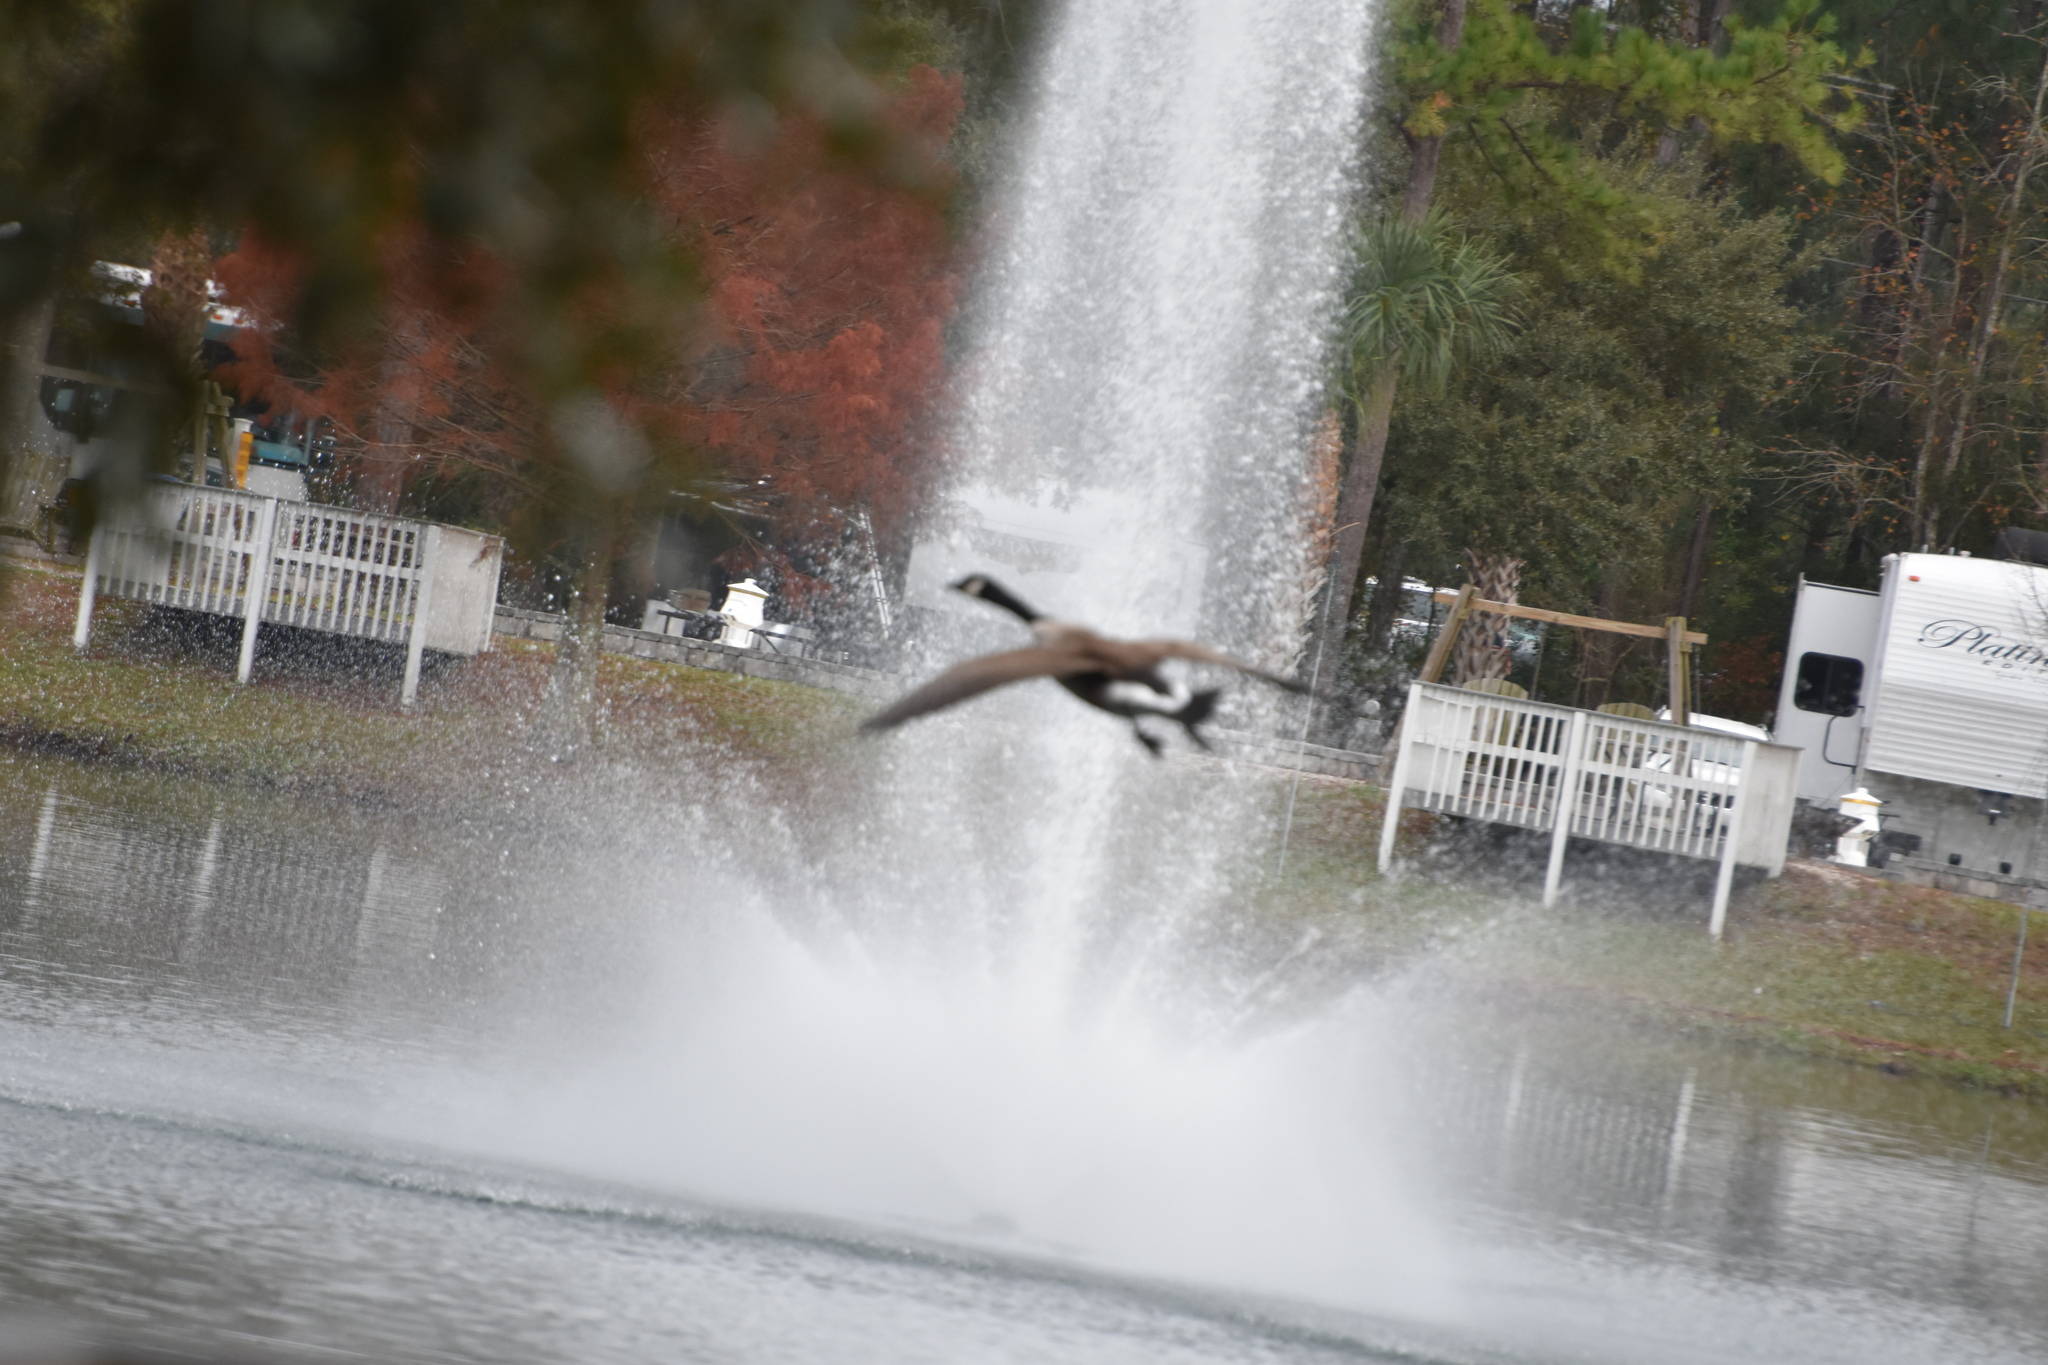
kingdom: Animalia
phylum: Chordata
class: Aves
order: Anseriformes
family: Anatidae
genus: Branta
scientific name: Branta canadensis
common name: Canada goose
